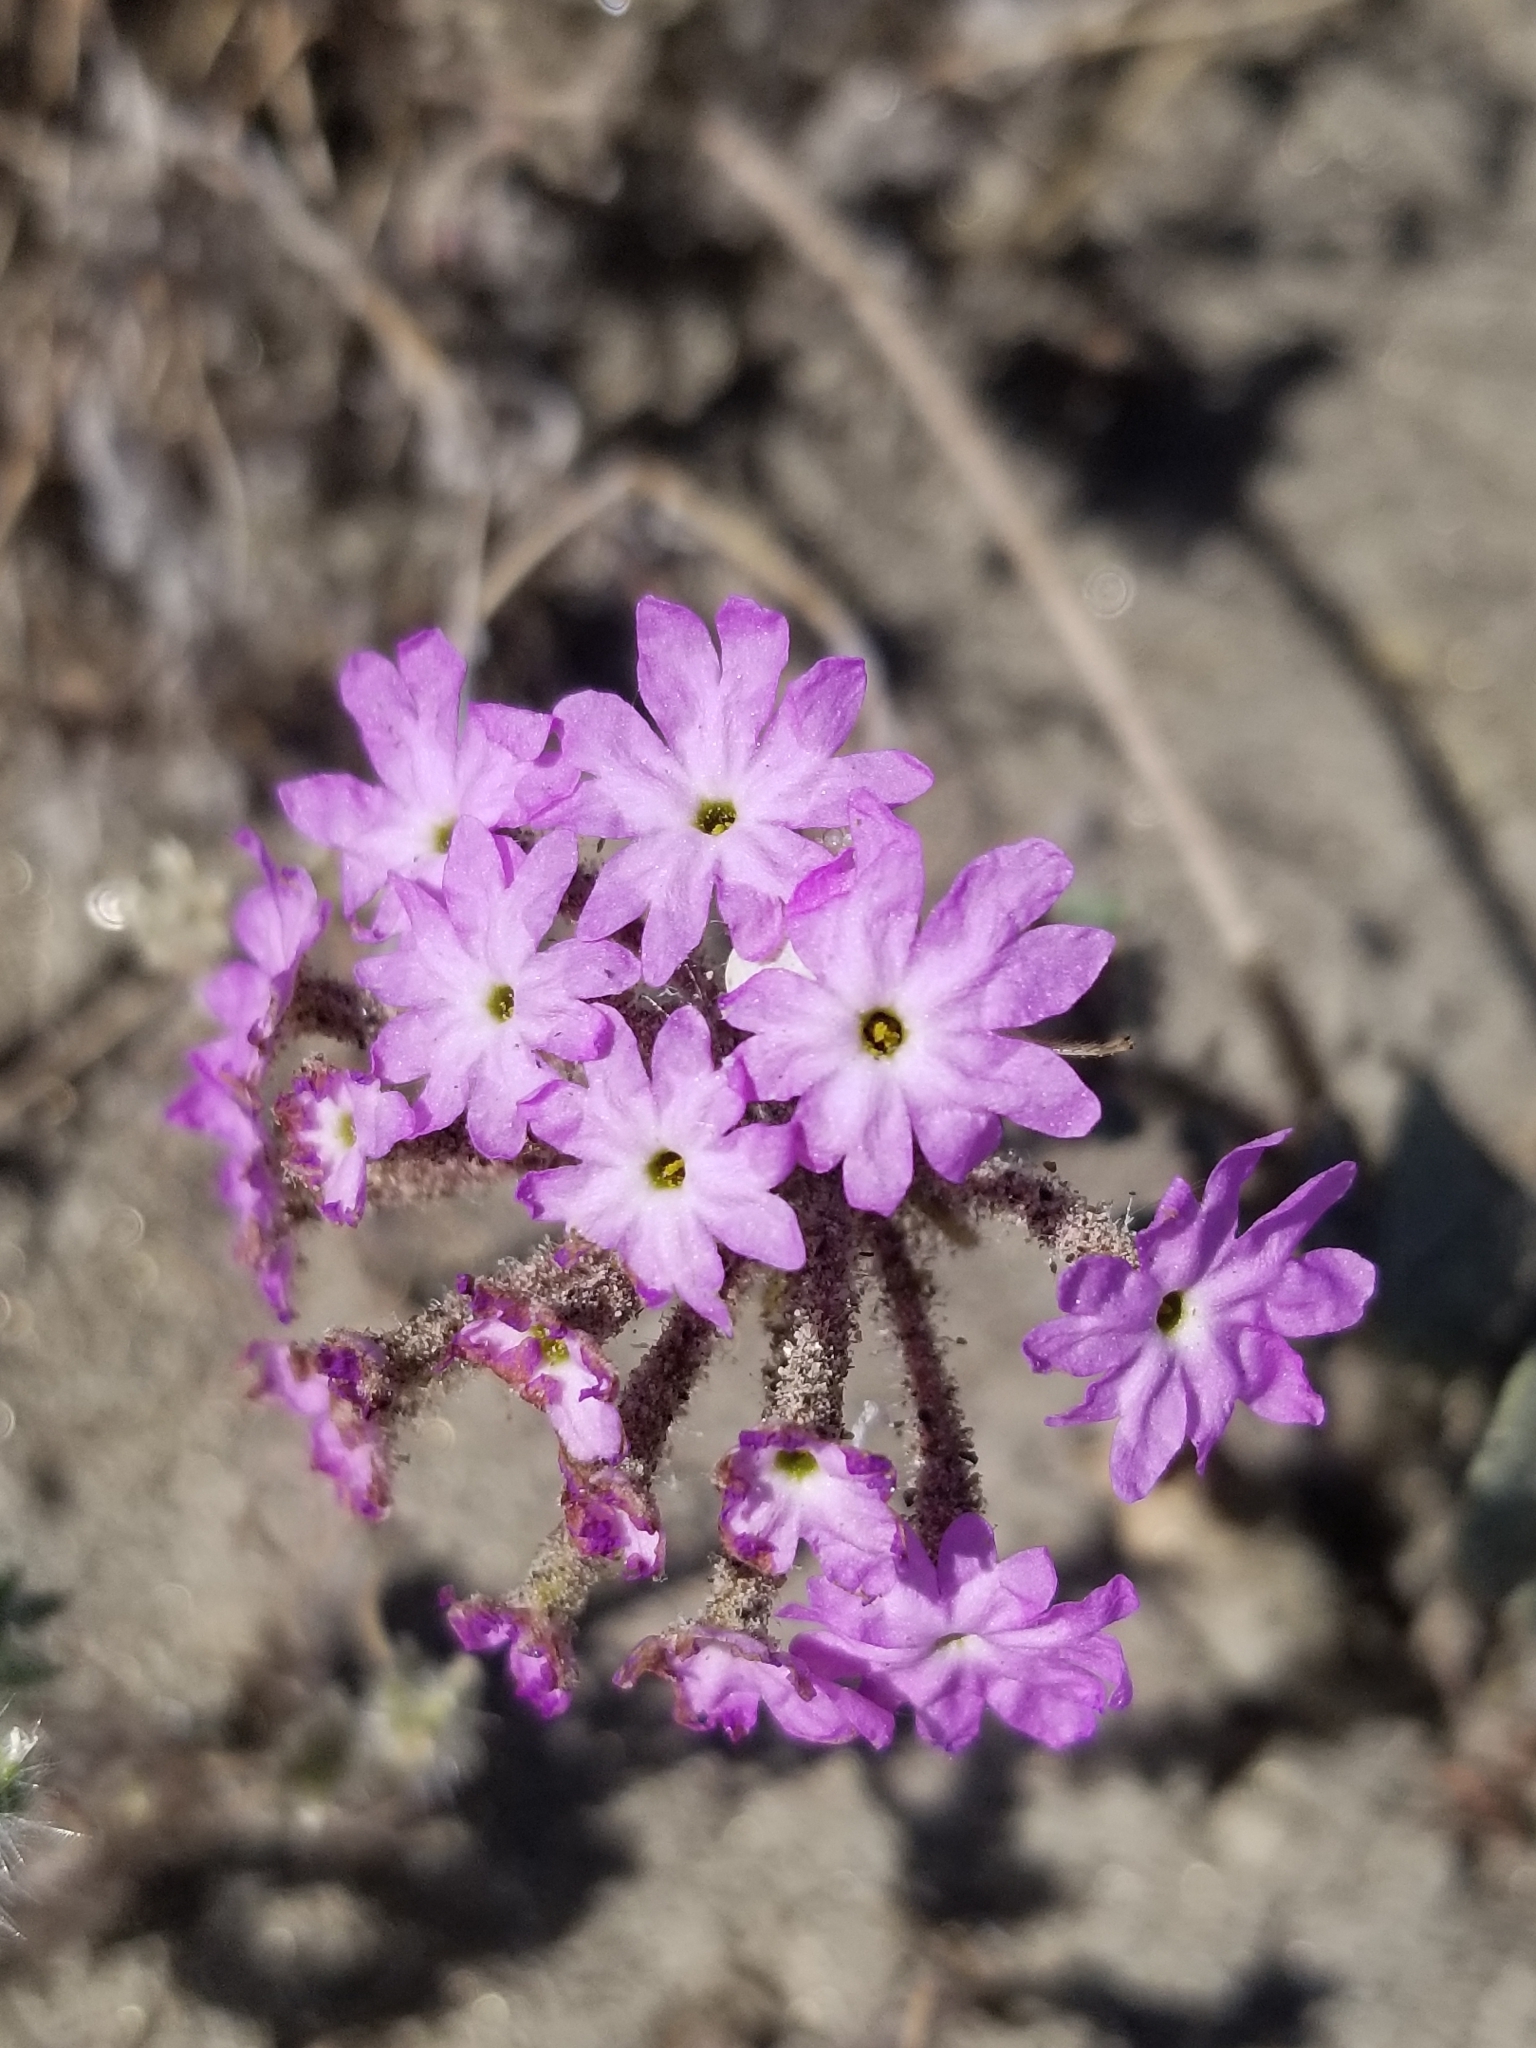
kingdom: Plantae
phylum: Tracheophyta
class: Magnoliopsida
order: Caryophyllales
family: Nyctaginaceae
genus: Abronia
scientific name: Abronia villosa
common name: Desert sand-verbena
